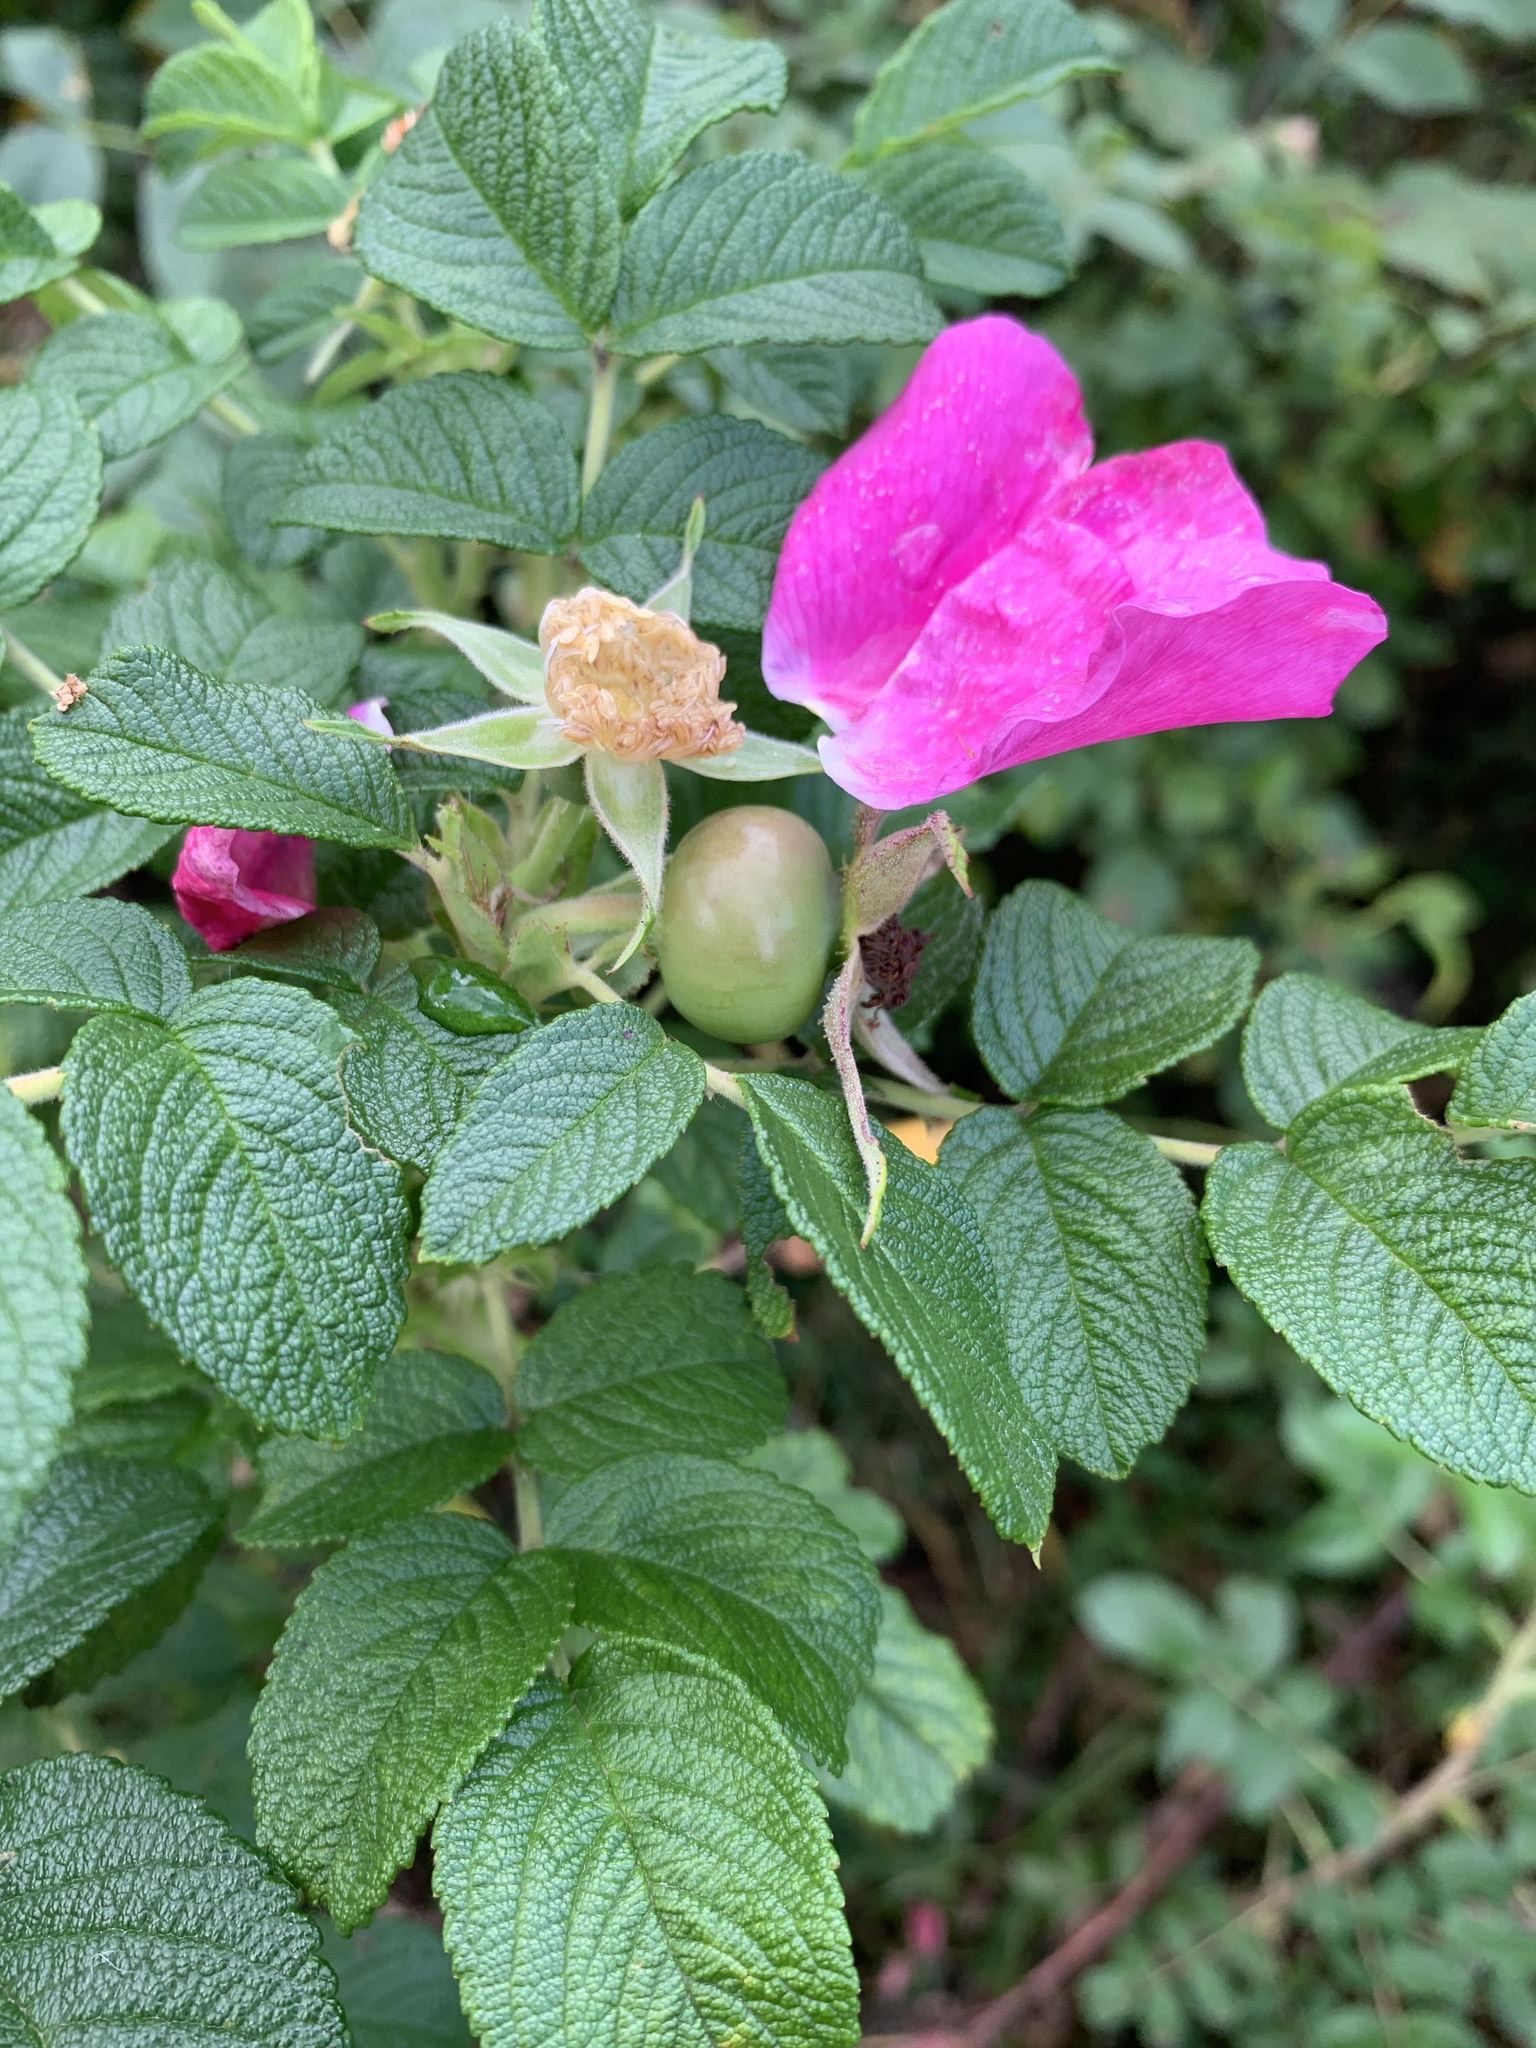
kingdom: Plantae
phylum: Tracheophyta
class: Magnoliopsida
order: Rosales
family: Rosaceae
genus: Rosa
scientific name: Rosa rugosa
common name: Japanese rose
